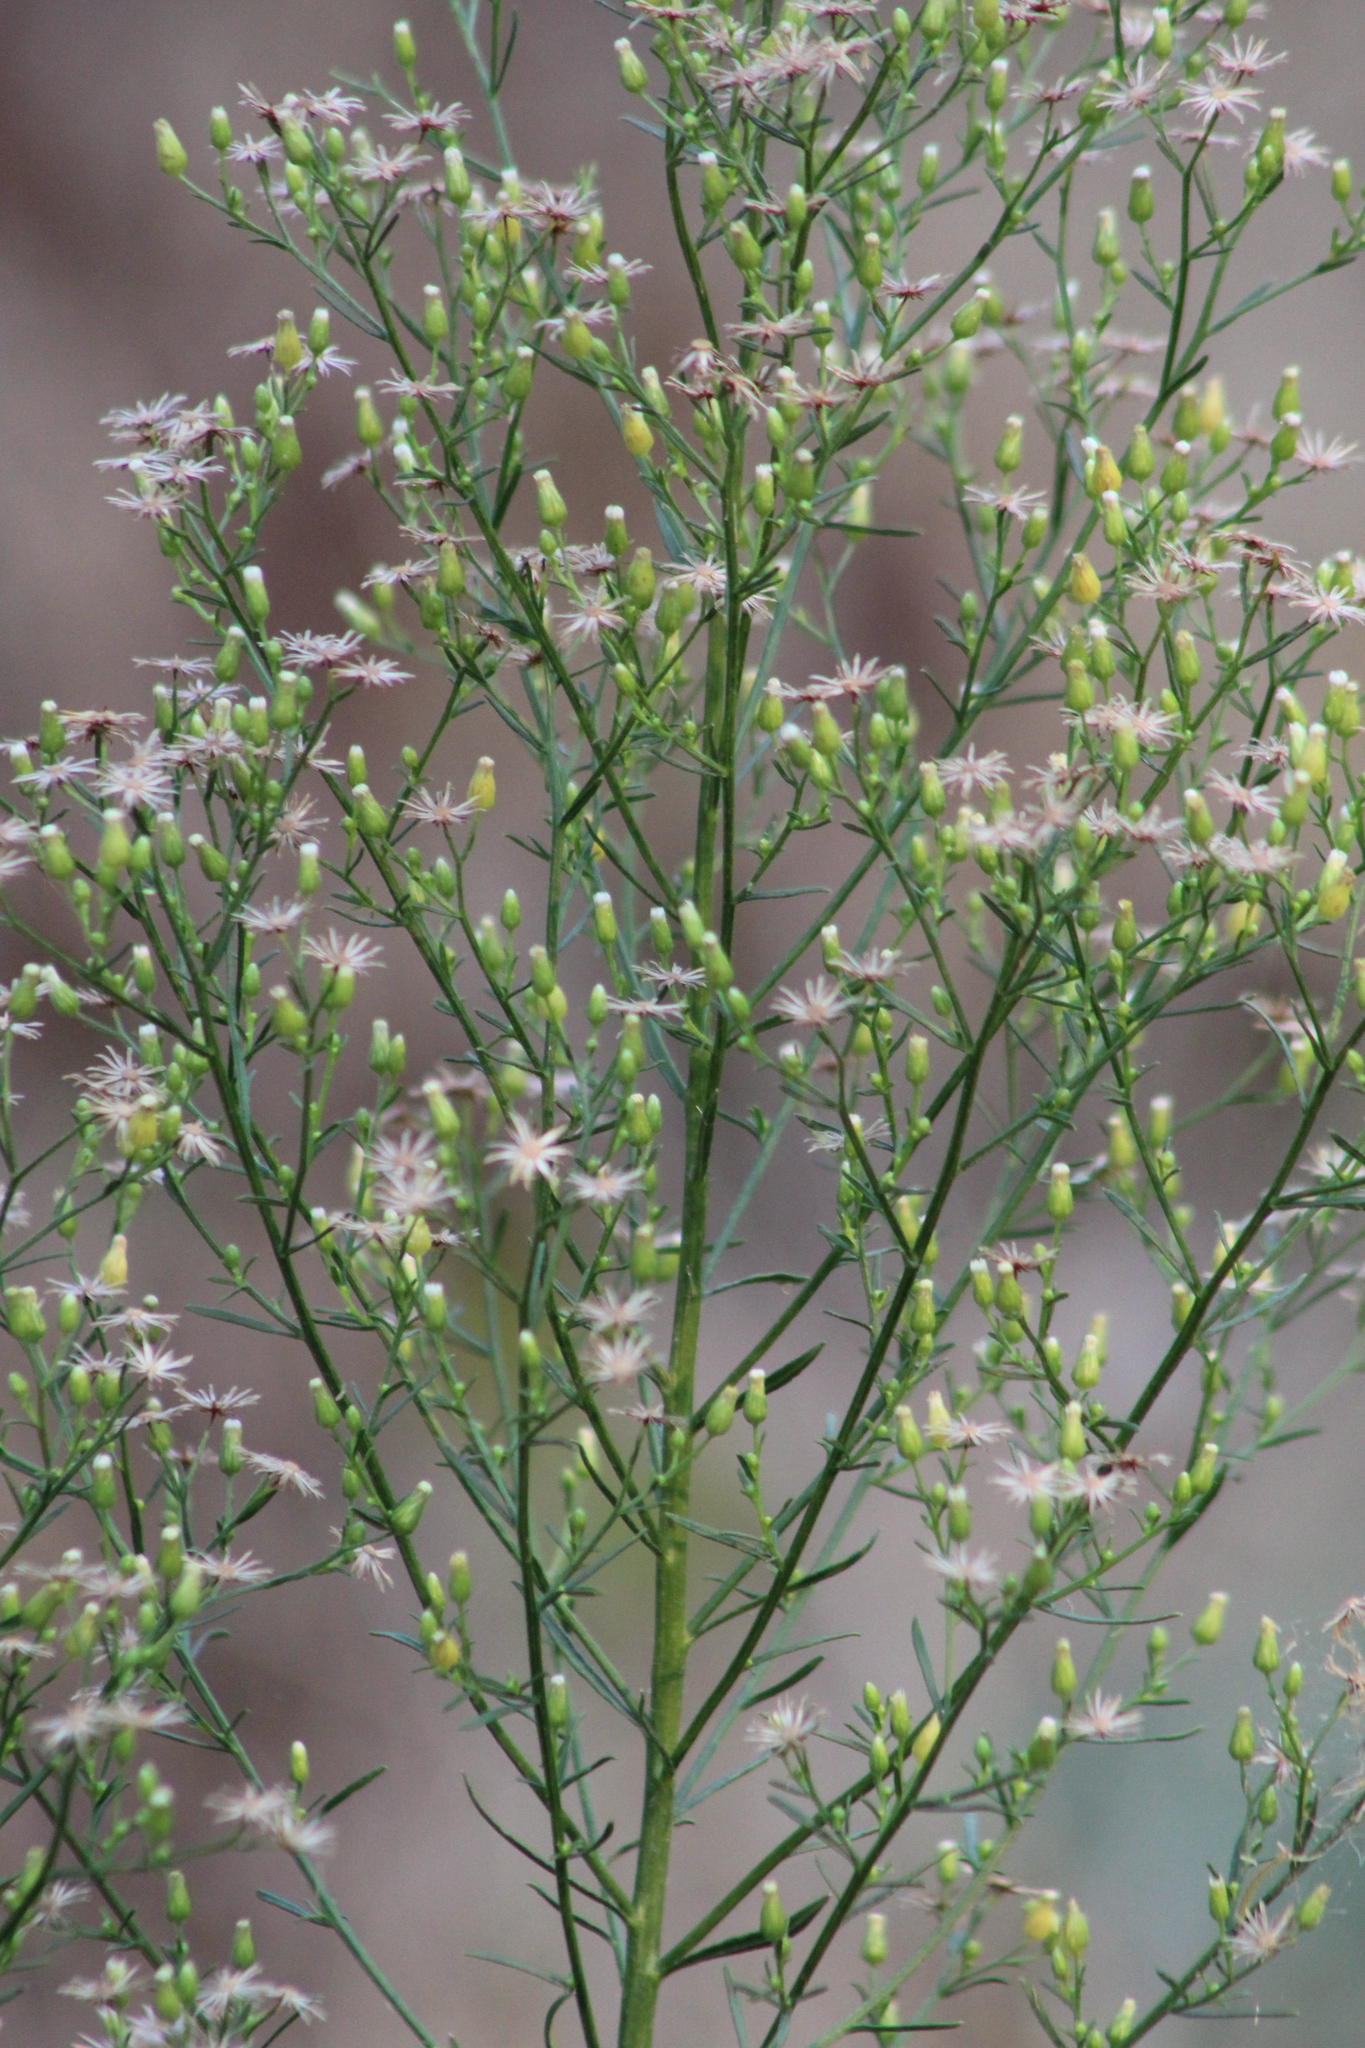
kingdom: Plantae
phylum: Tracheophyta
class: Magnoliopsida
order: Asterales
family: Asteraceae
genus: Erigeron
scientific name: Erigeron canadensis
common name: Canadian fleabane
